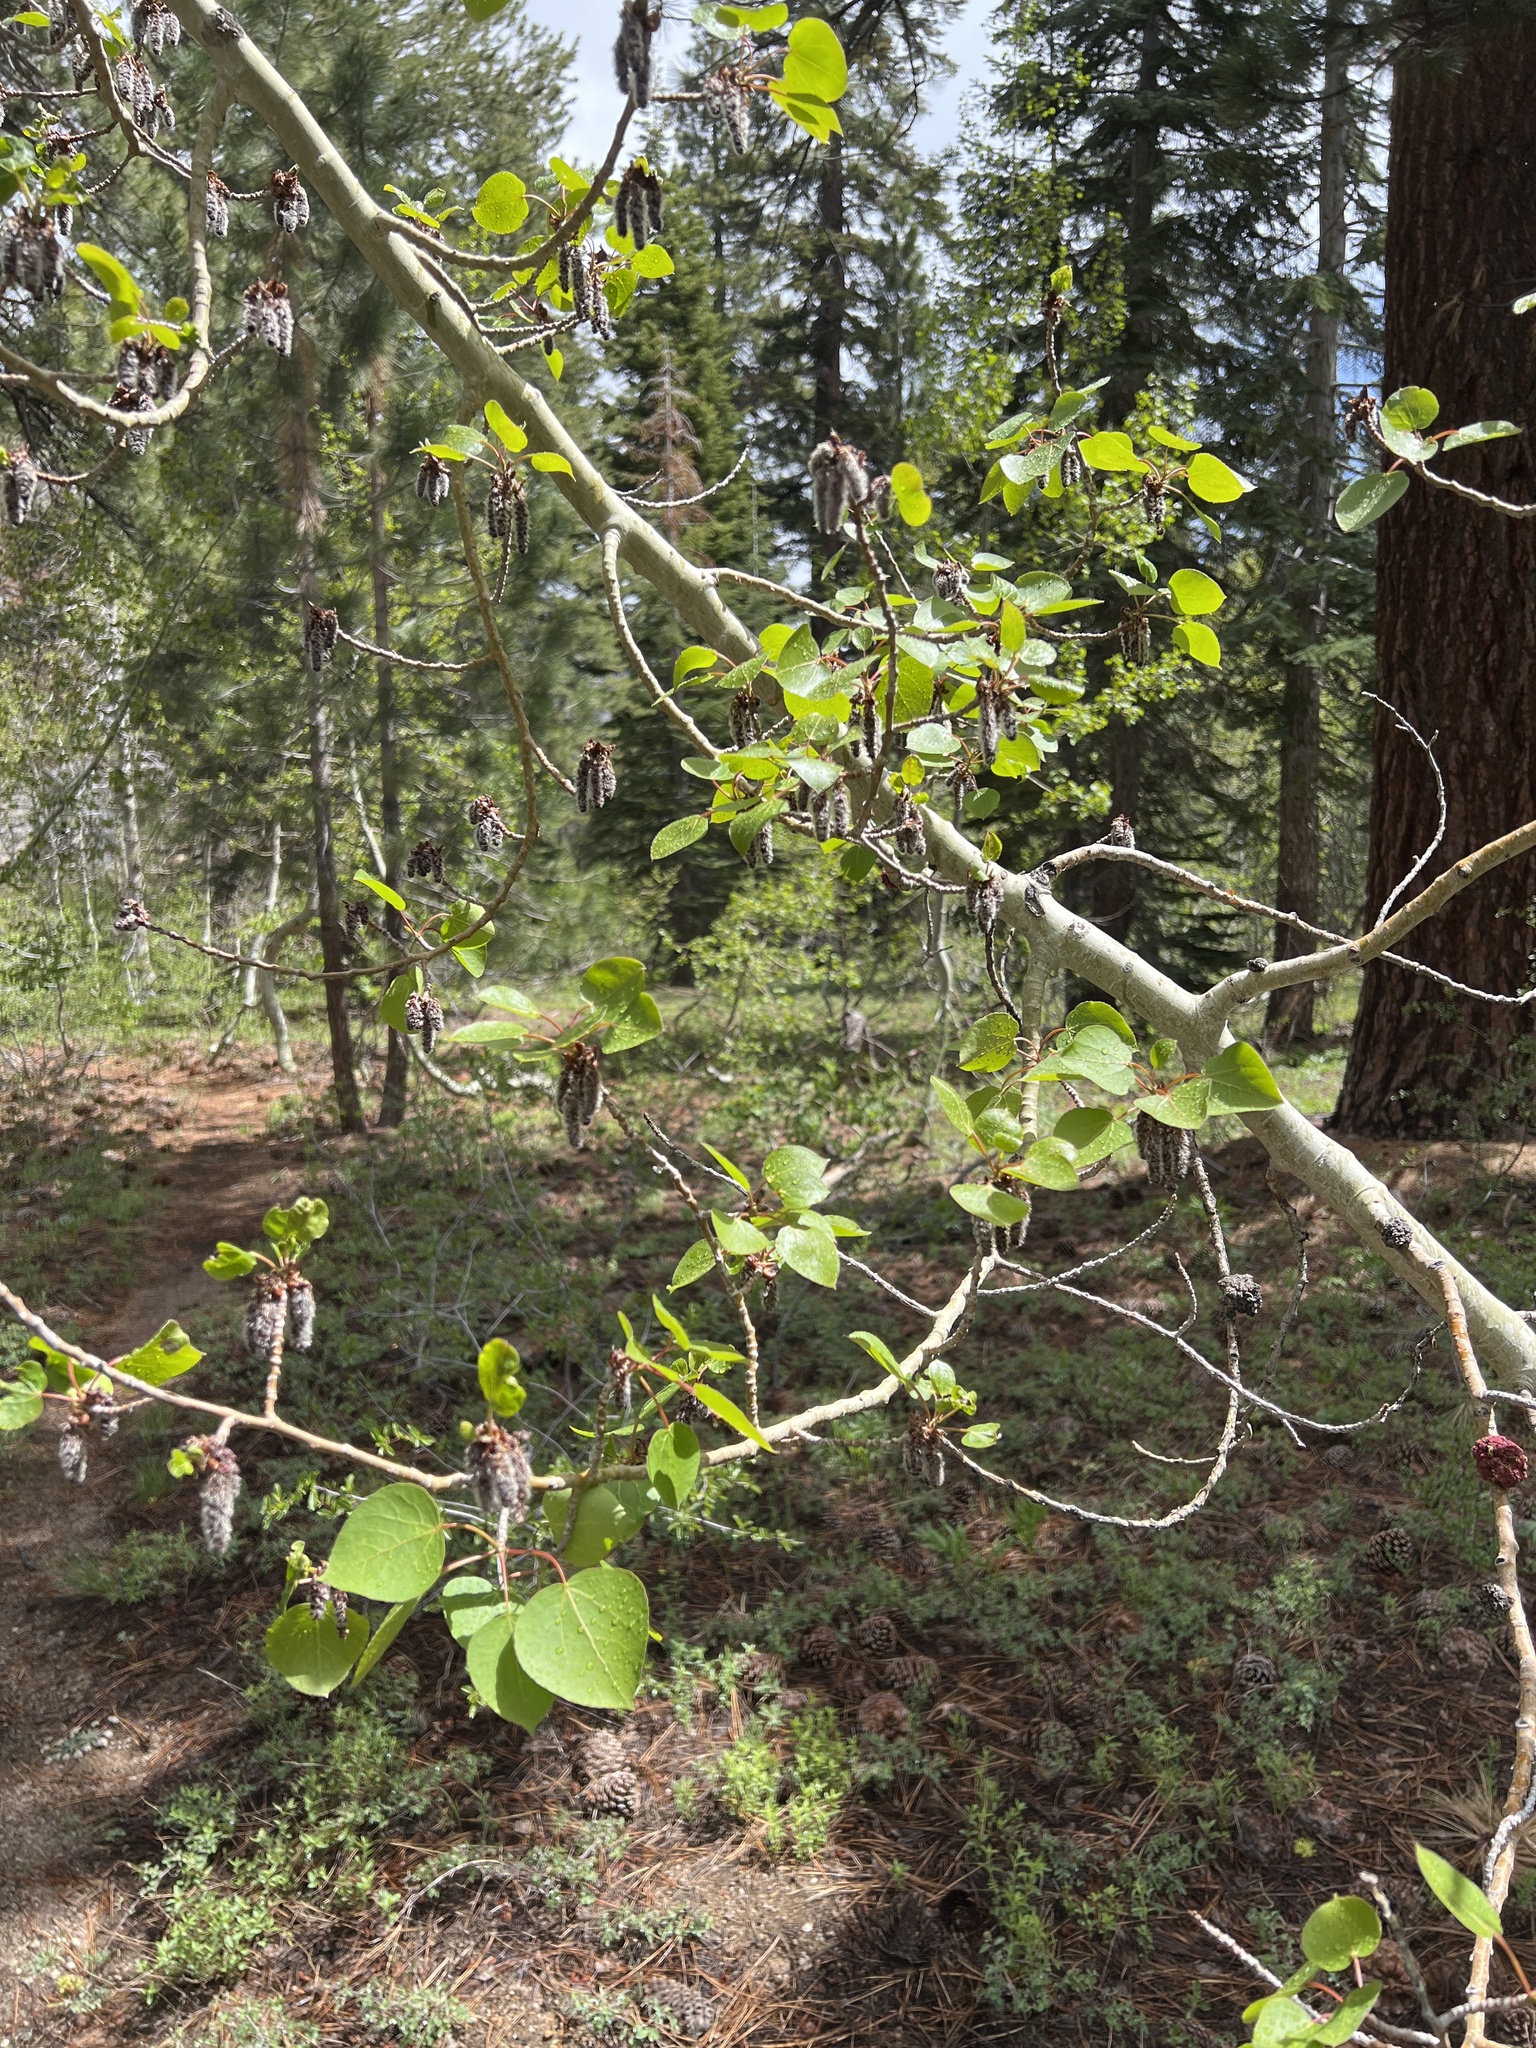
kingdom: Plantae
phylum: Tracheophyta
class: Magnoliopsida
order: Malpighiales
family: Salicaceae
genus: Populus
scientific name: Populus tremuloides
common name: Quaking aspen
